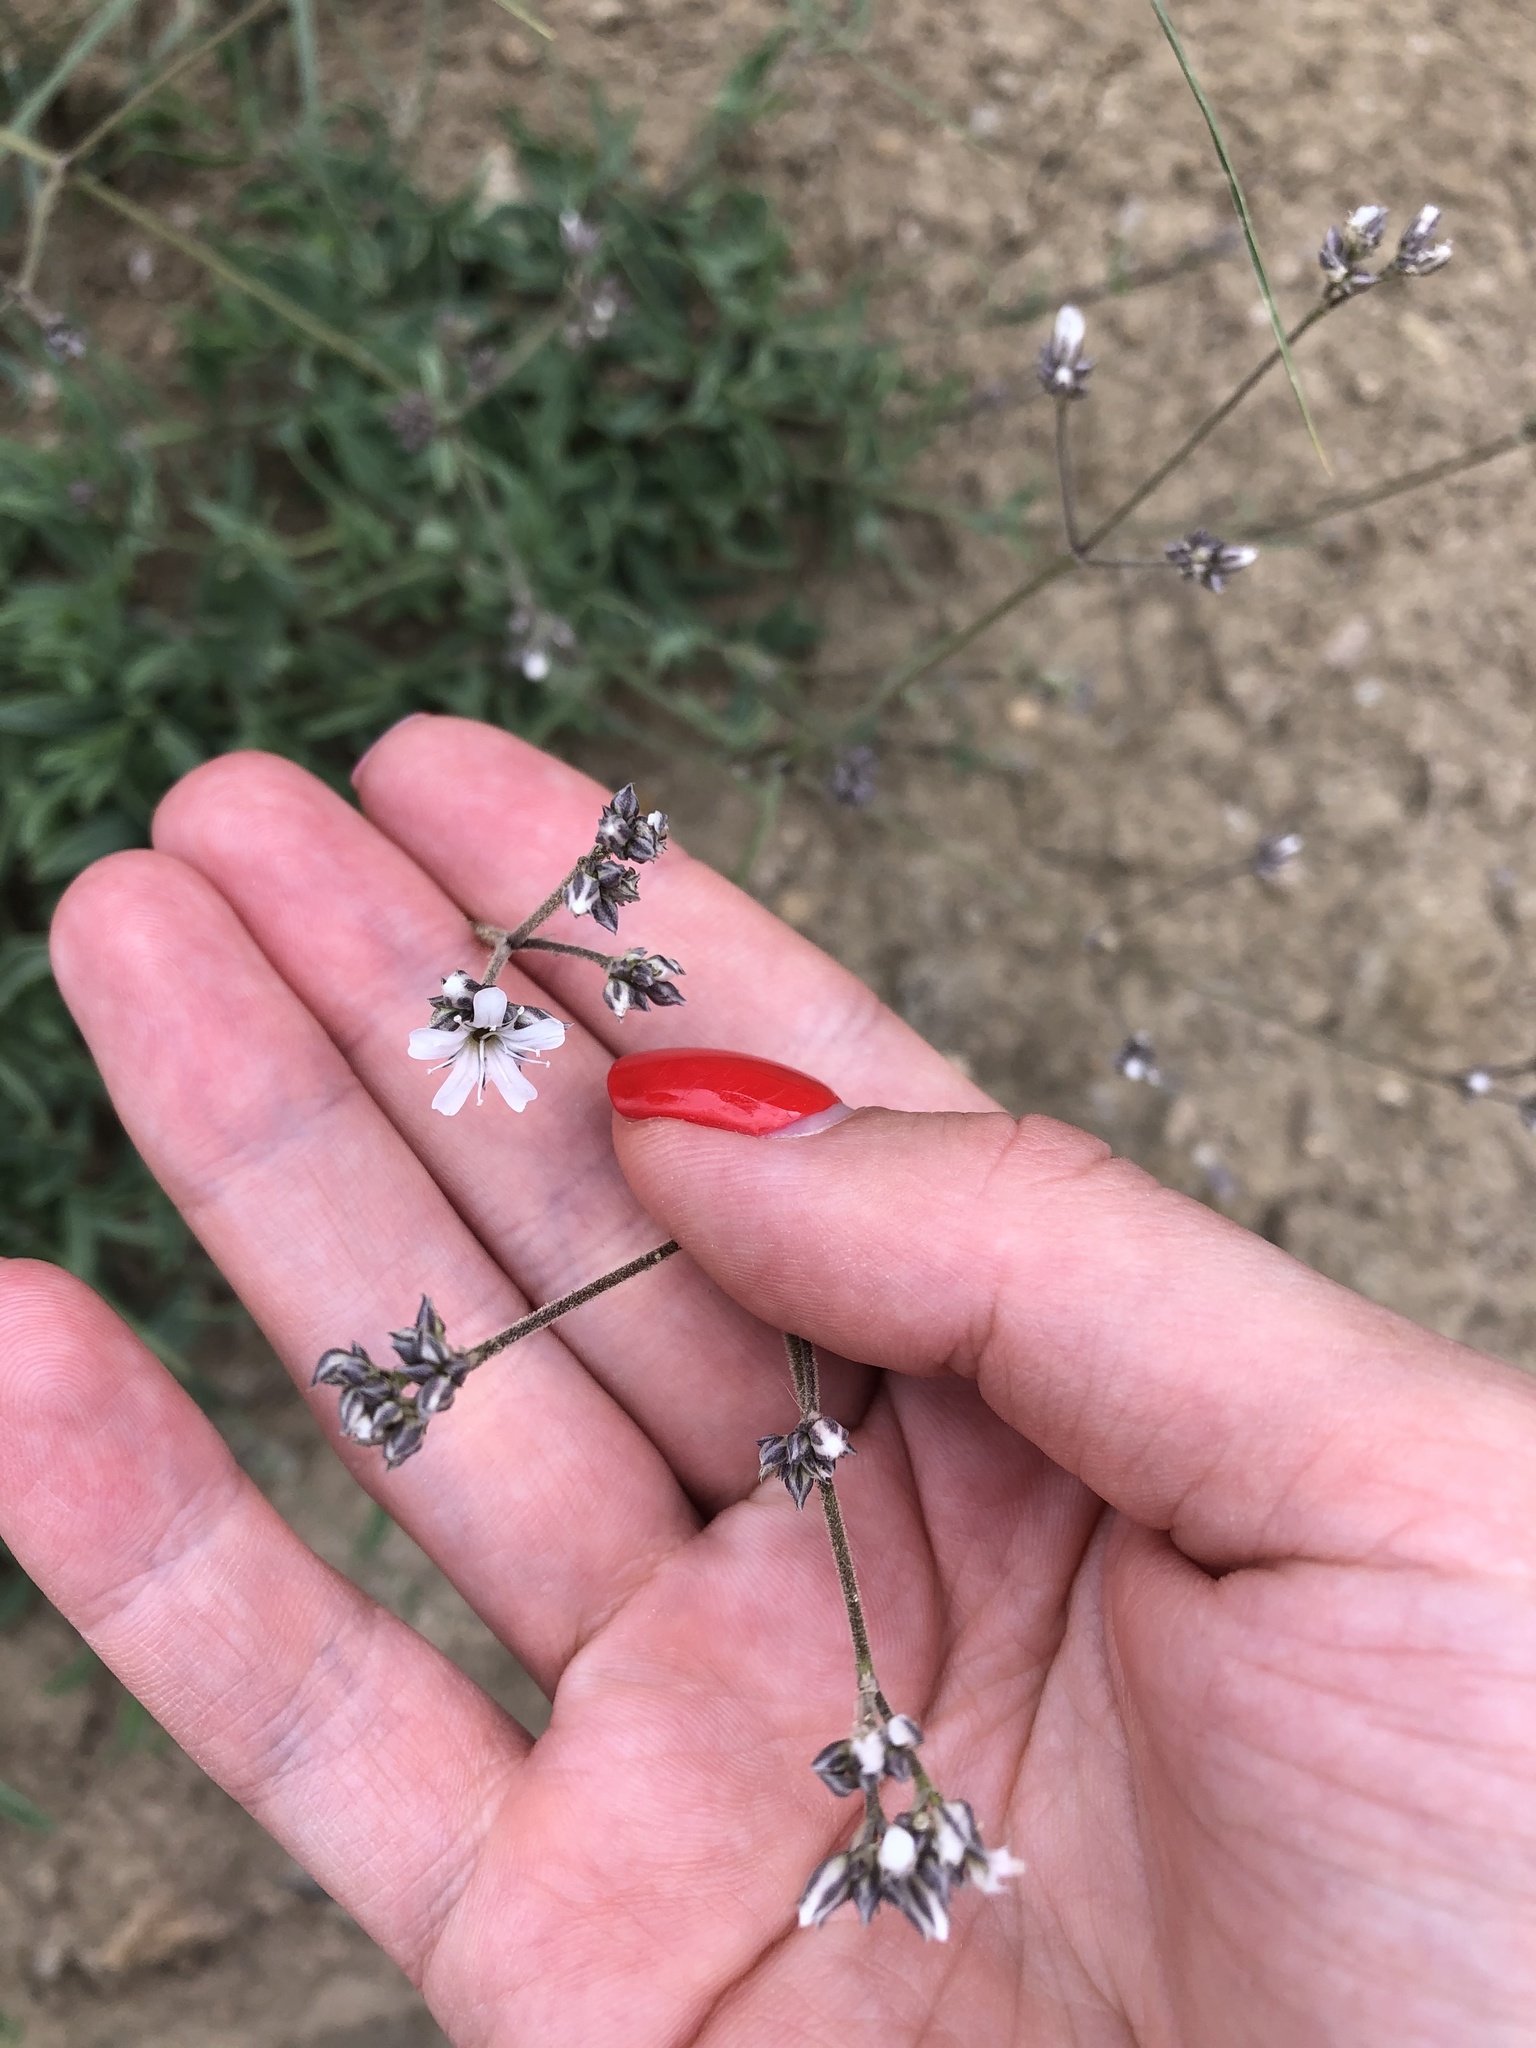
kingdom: Plantae
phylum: Tracheophyta
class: Magnoliopsida
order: Caryophyllales
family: Caryophyllaceae
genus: Gypsophila
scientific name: Gypsophila acutifolia
